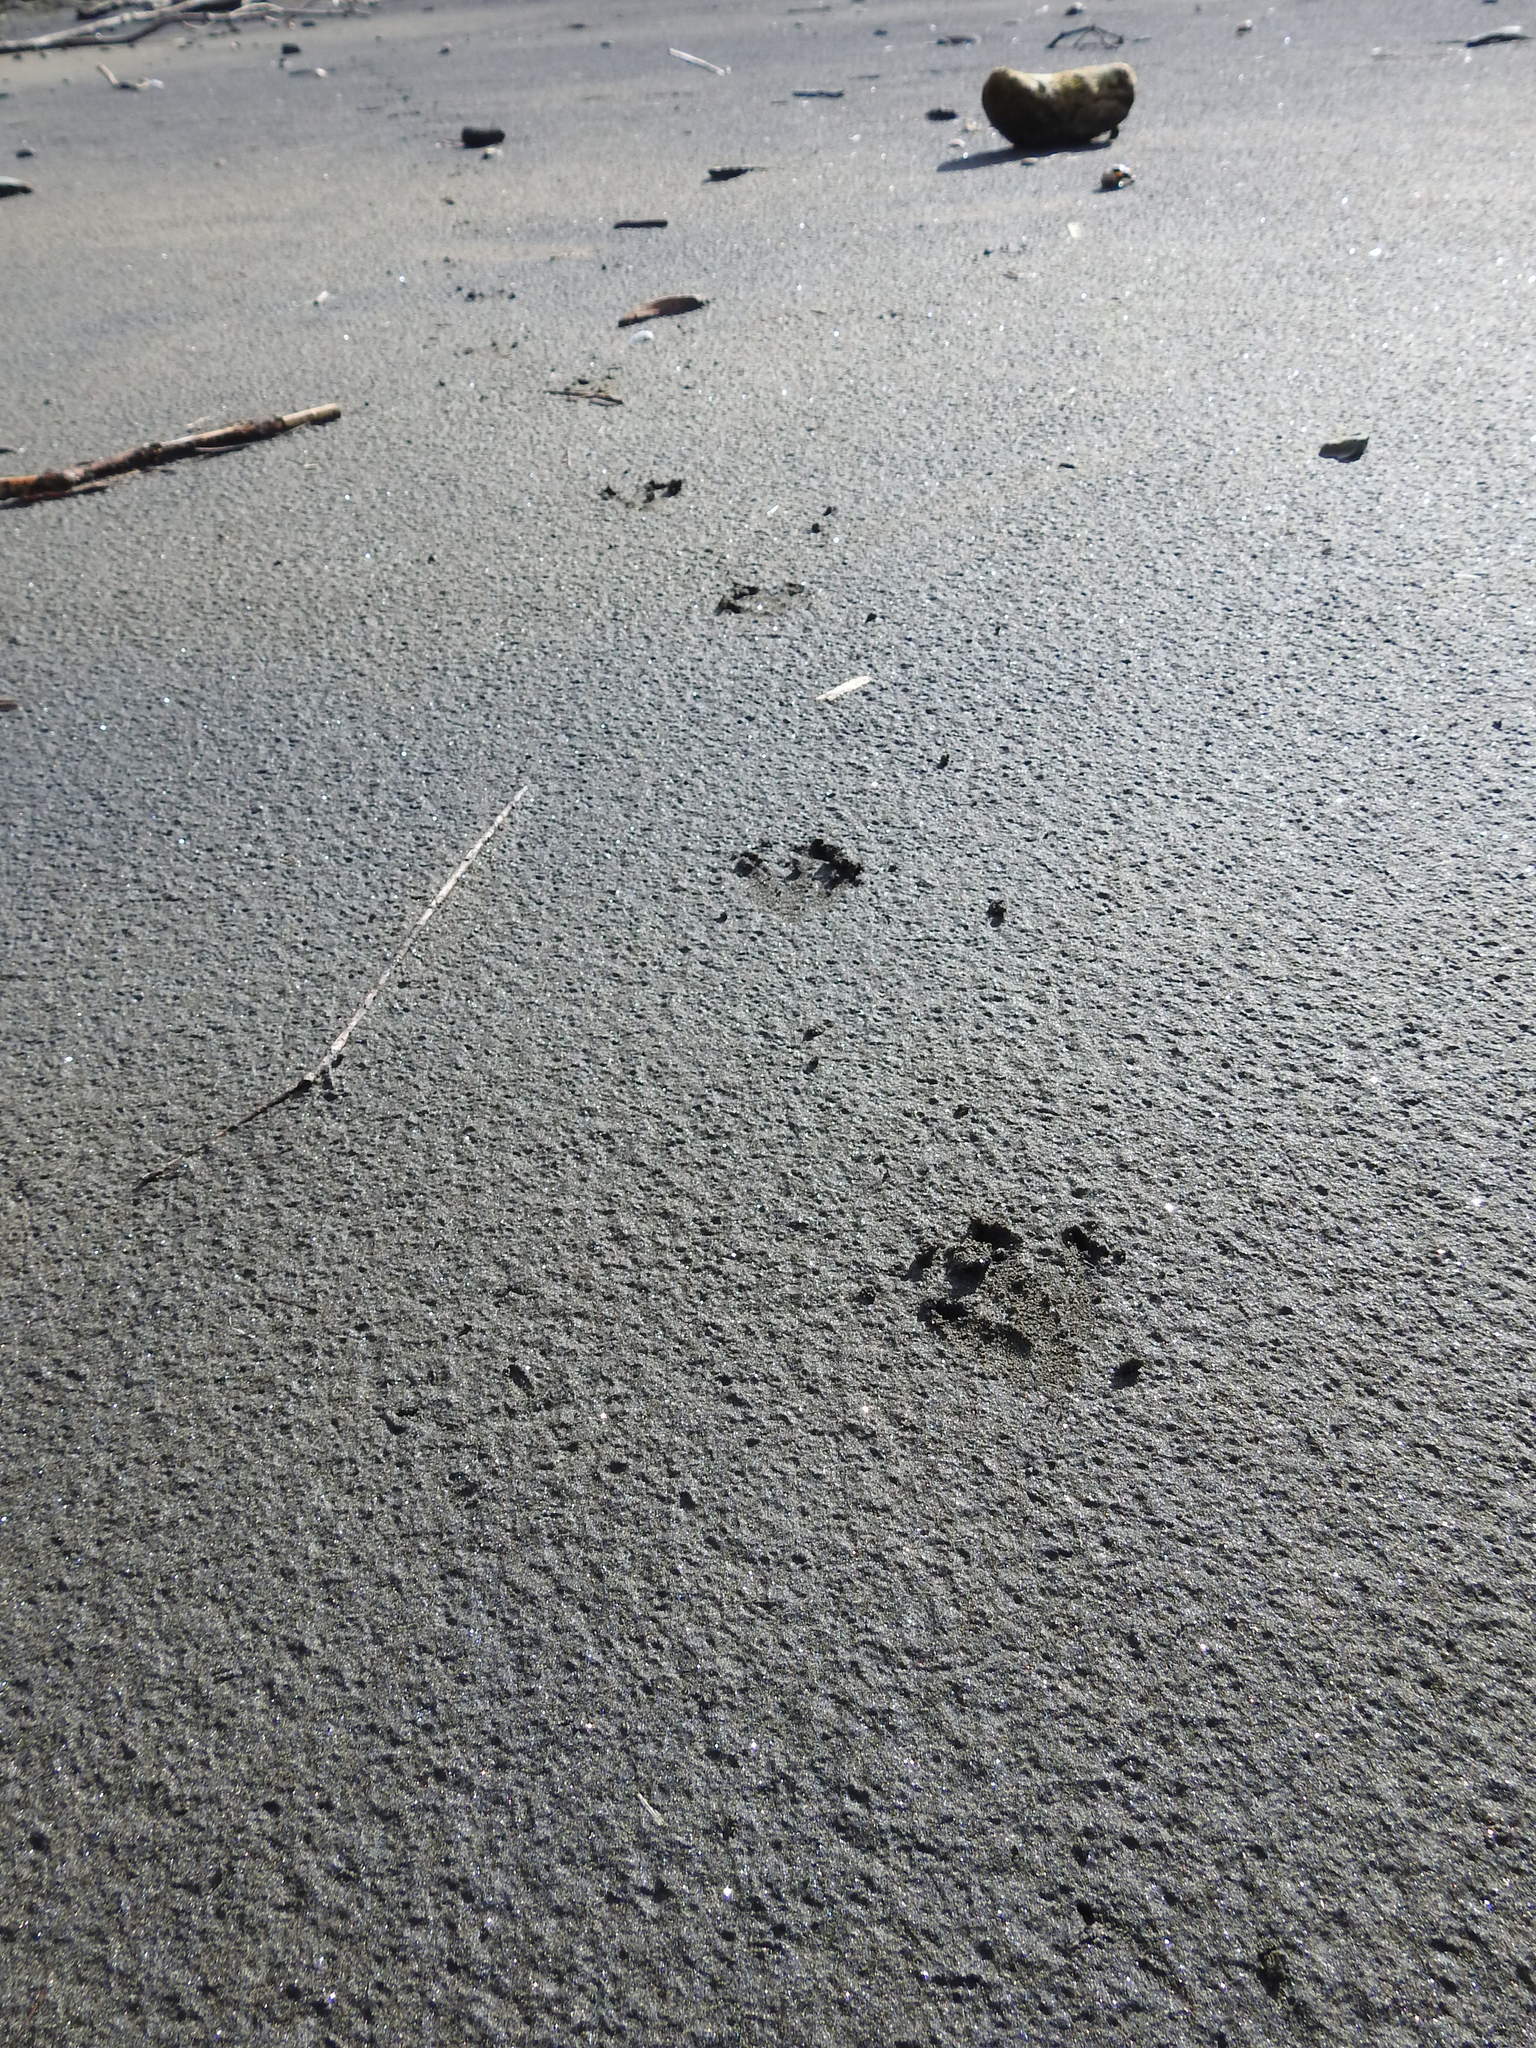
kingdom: Animalia
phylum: Chordata
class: Aves
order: Sphenisciformes
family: Spheniscidae
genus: Eudyptula
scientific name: Eudyptula minor
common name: Little penguin
